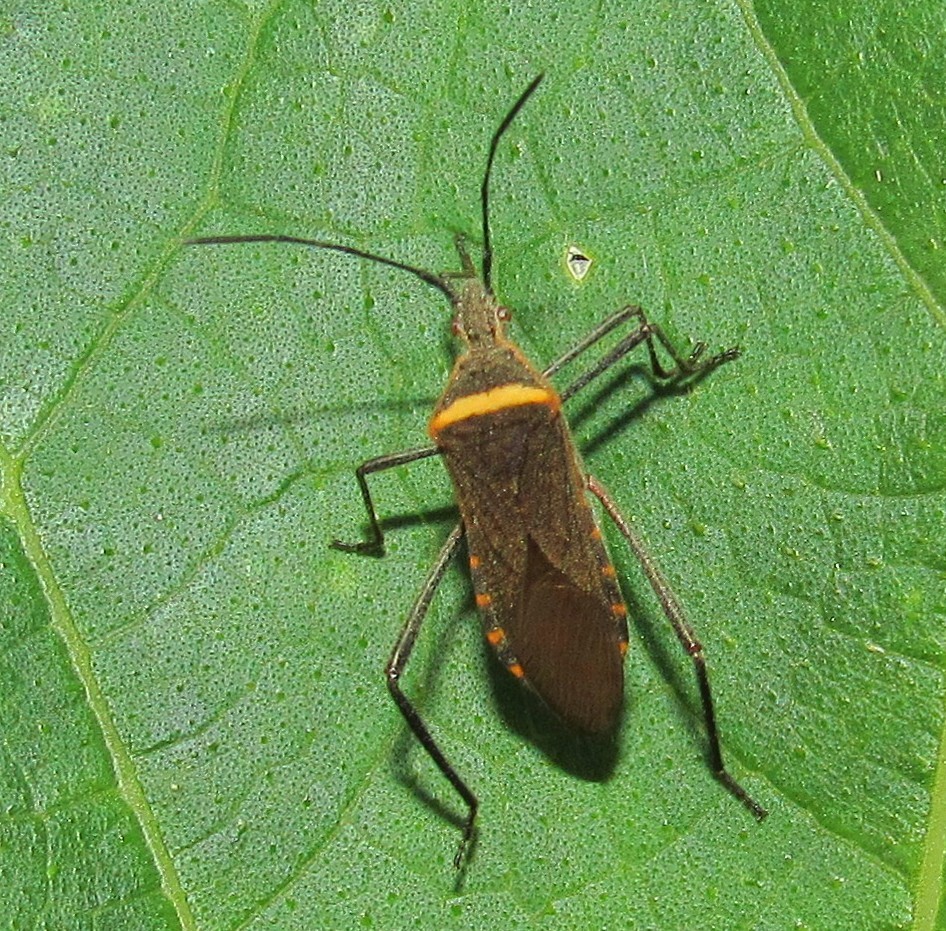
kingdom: Animalia
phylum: Arthropoda
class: Insecta
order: Hemiptera
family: Coreidae
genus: Phthiacnemia
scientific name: Phthiacnemia picta
